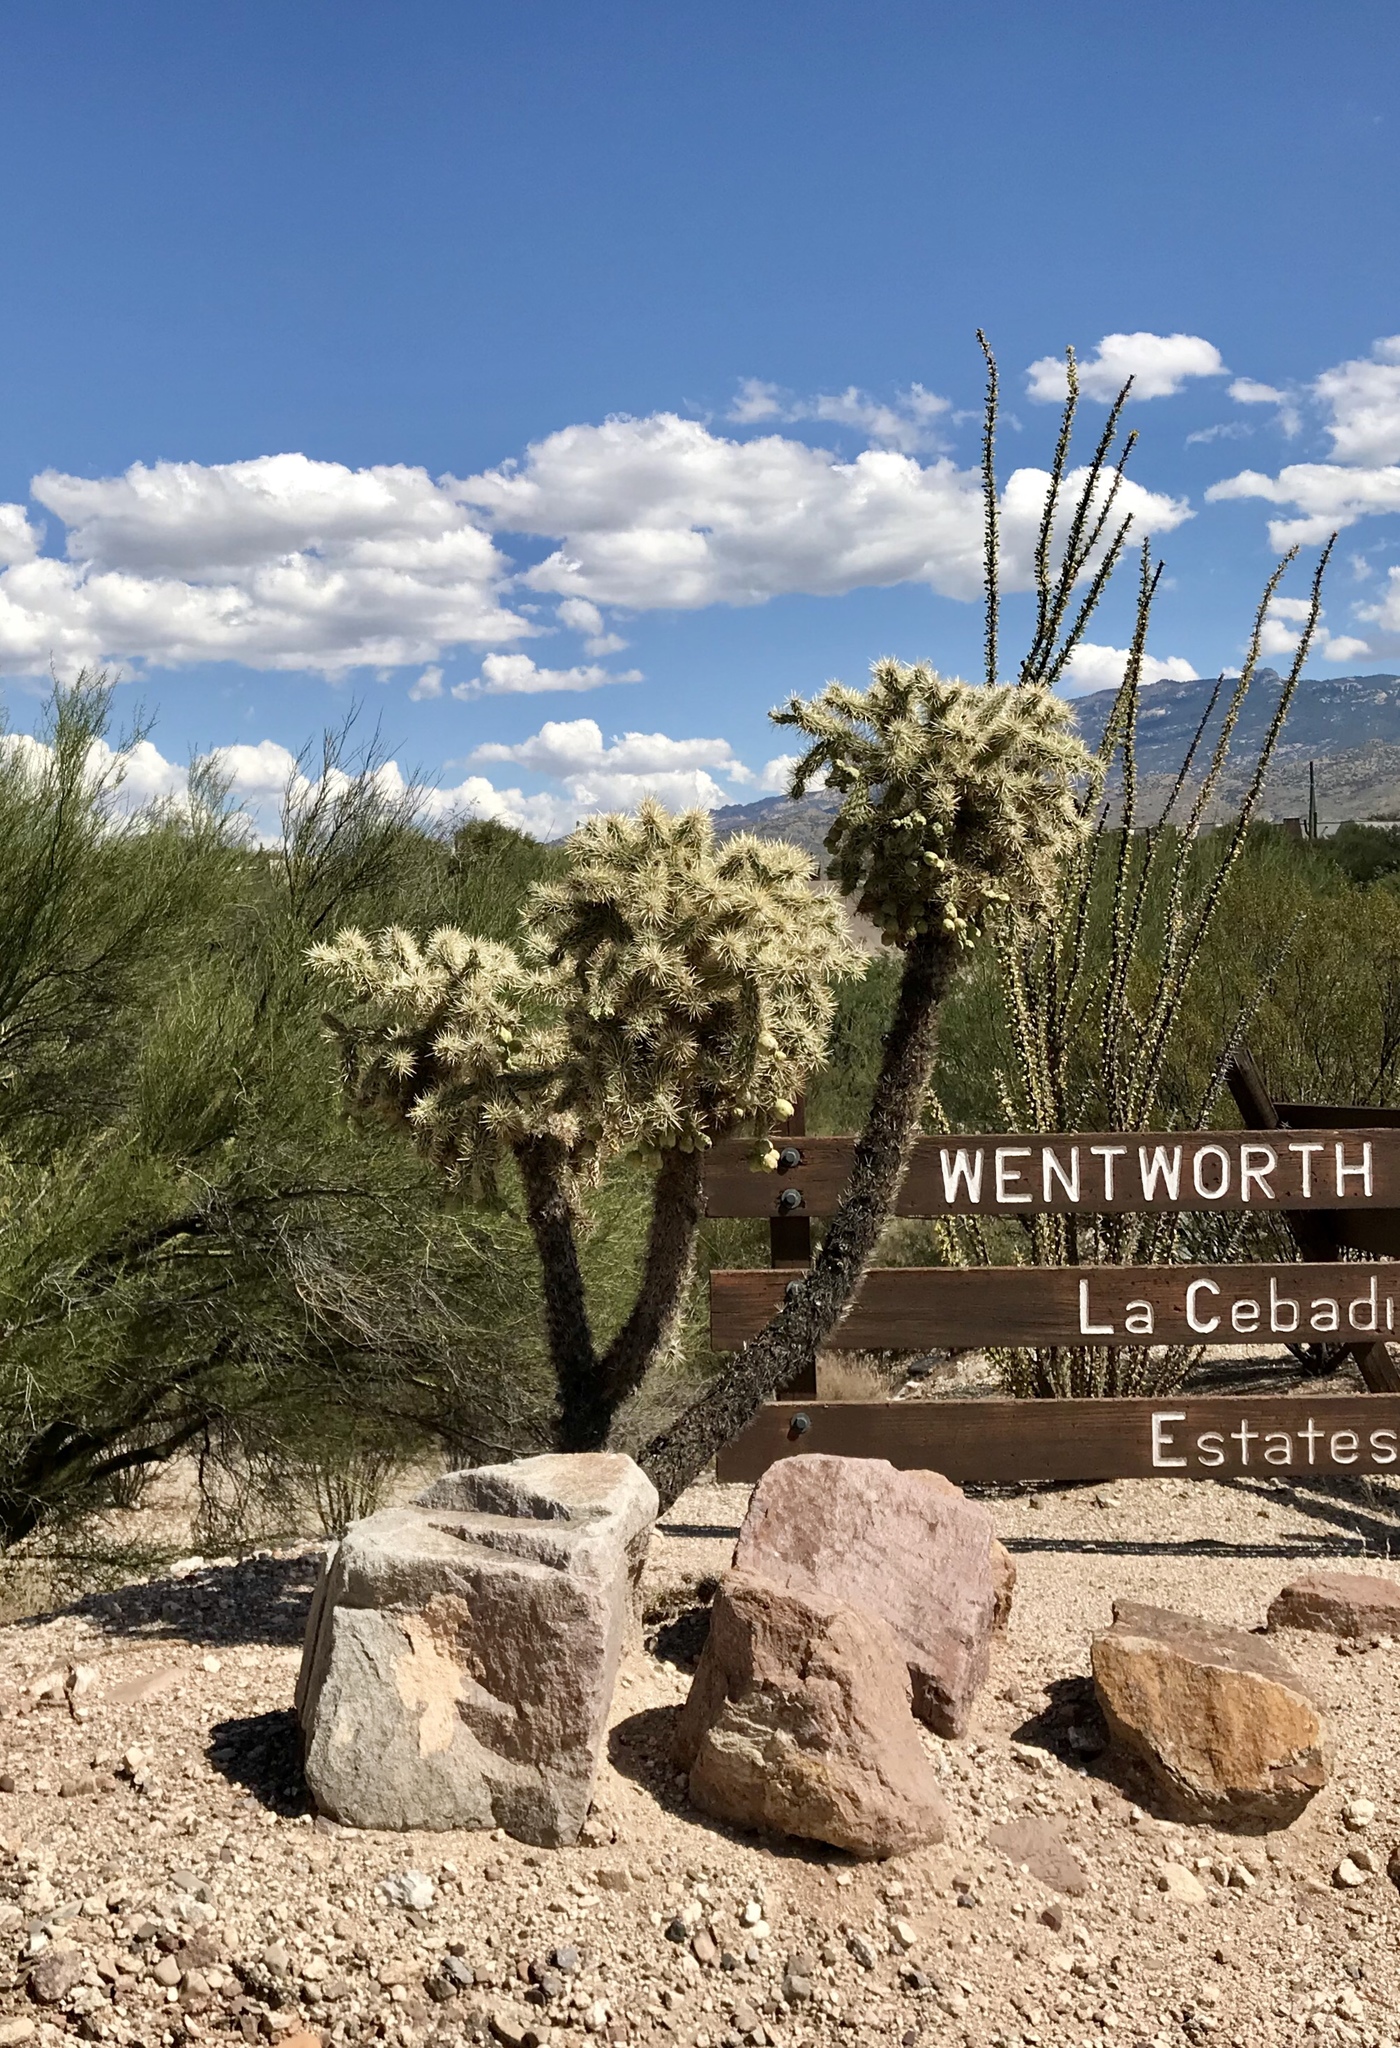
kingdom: Plantae
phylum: Tracheophyta
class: Magnoliopsida
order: Caryophyllales
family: Cactaceae
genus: Cylindropuntia
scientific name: Cylindropuntia fulgida
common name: Jumping cholla
